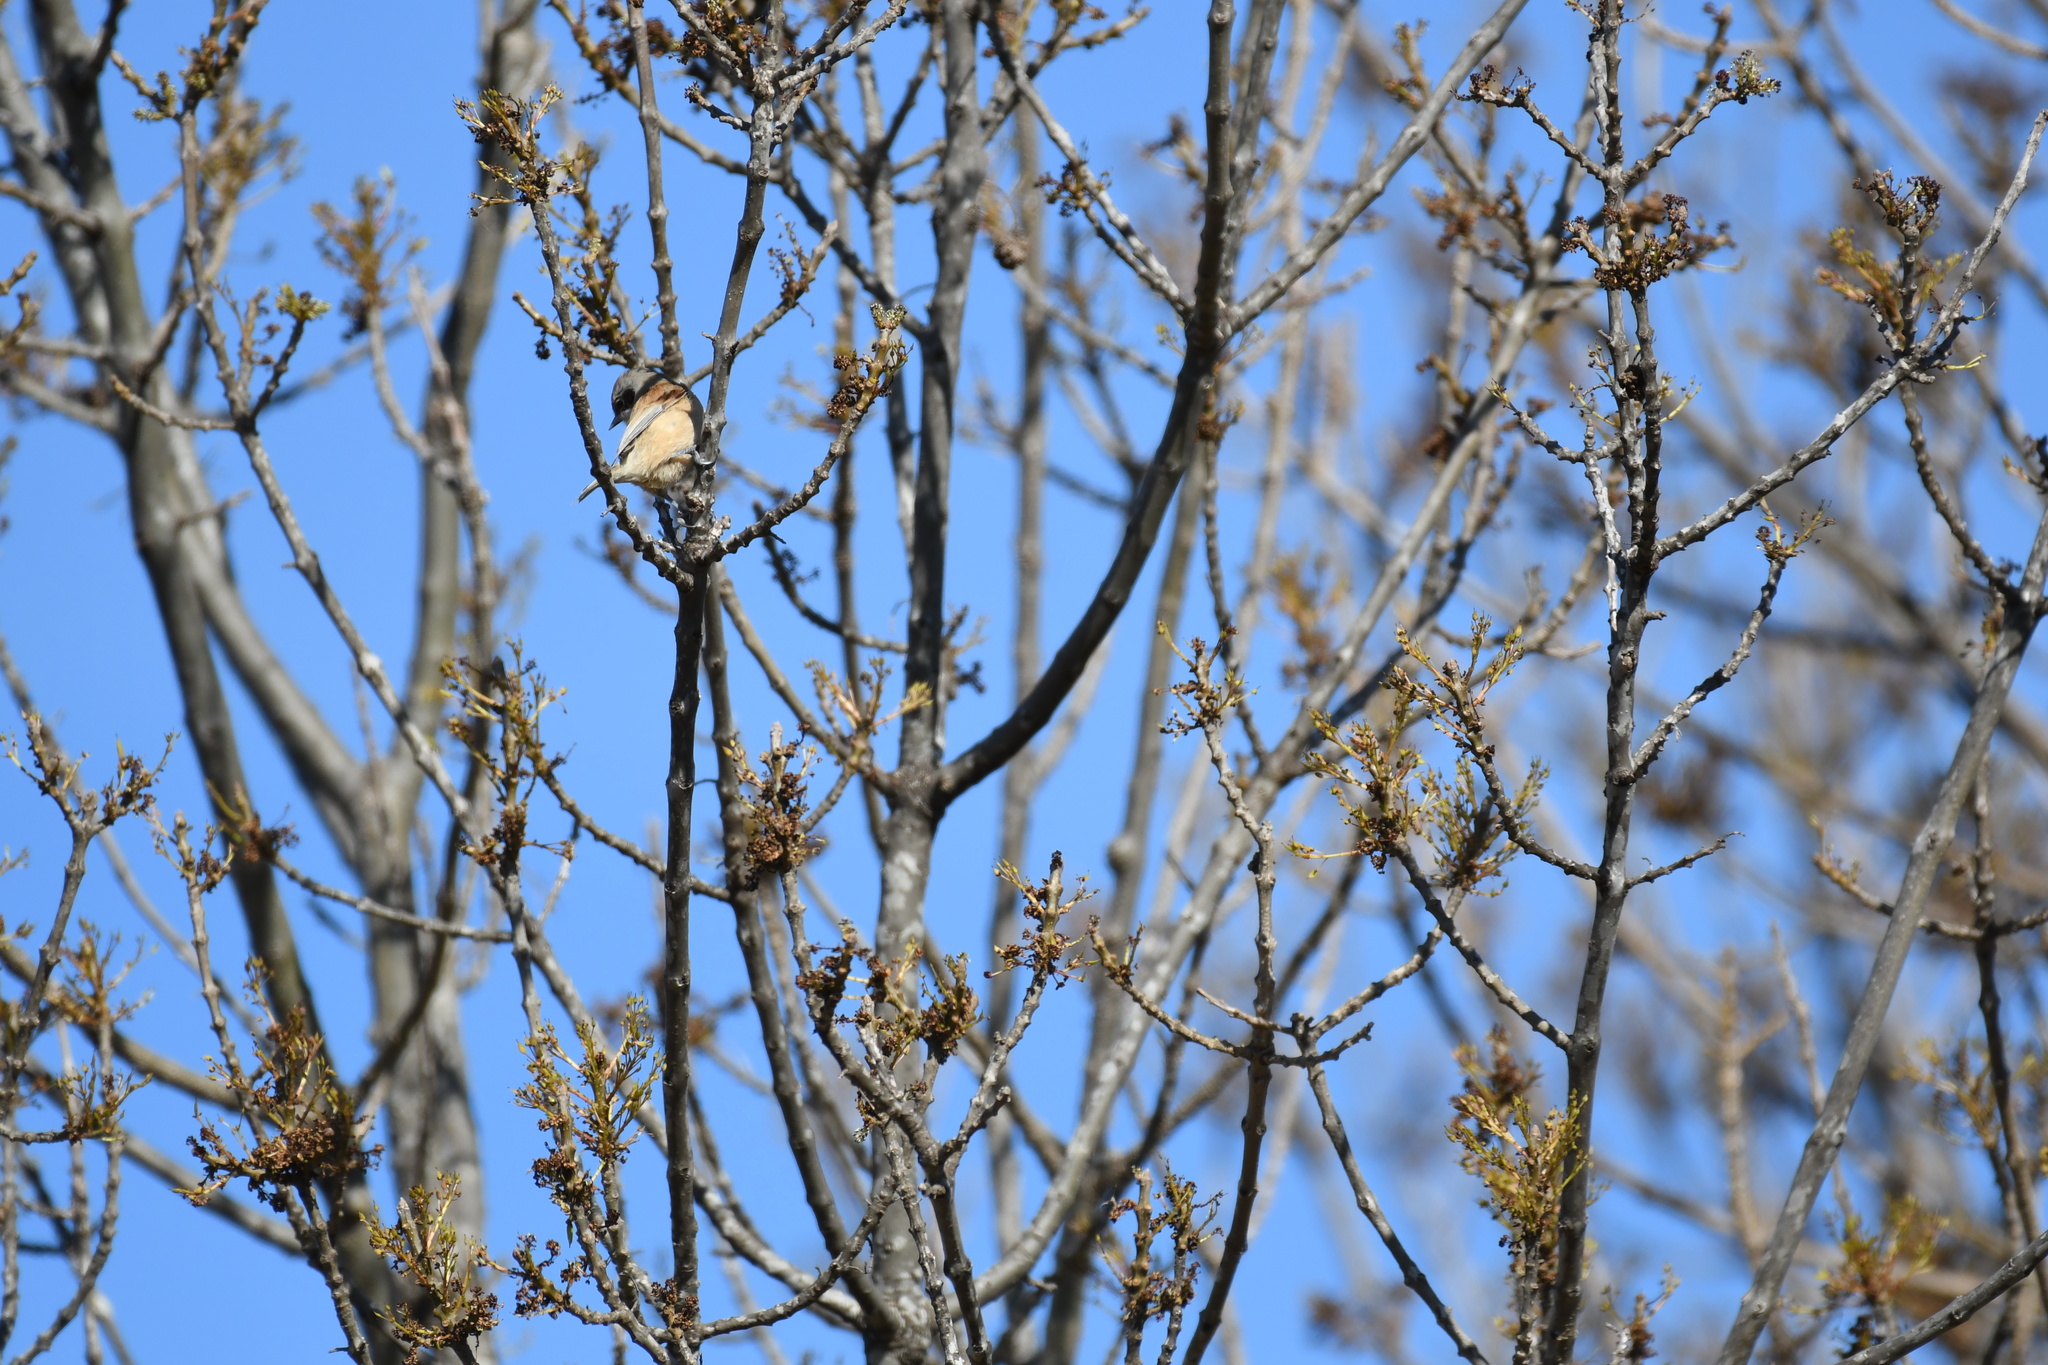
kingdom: Animalia
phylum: Chordata
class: Aves
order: Passeriformes
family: Remizidae
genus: Remiz
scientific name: Remiz pendulinus
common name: Eurasian penduline tit
